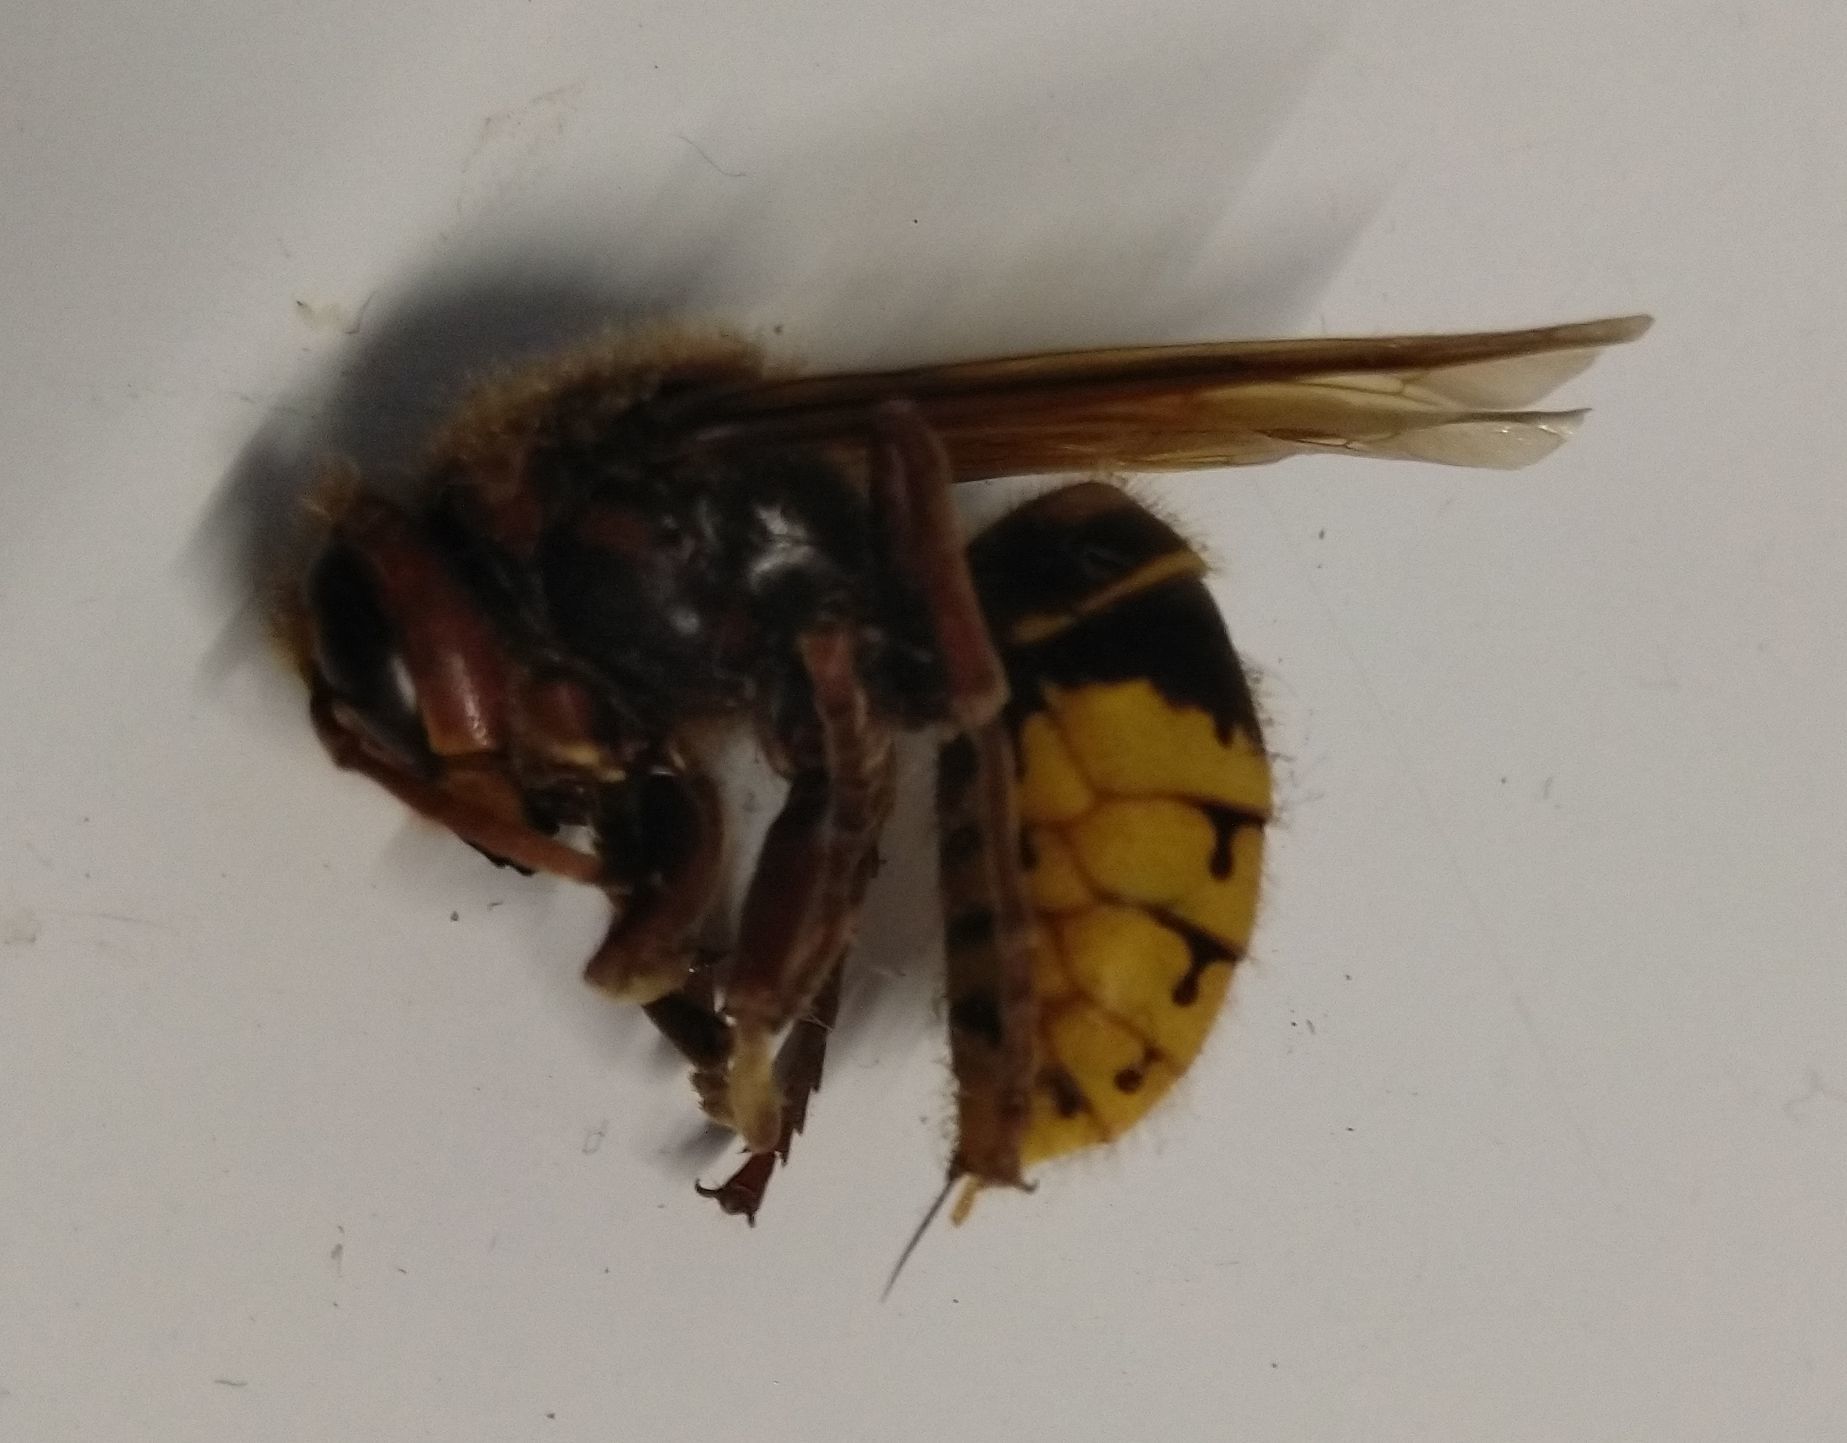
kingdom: Animalia
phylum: Arthropoda
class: Insecta
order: Hymenoptera
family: Vespidae
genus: Vespa
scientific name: Vespa crabro
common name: Hornet
